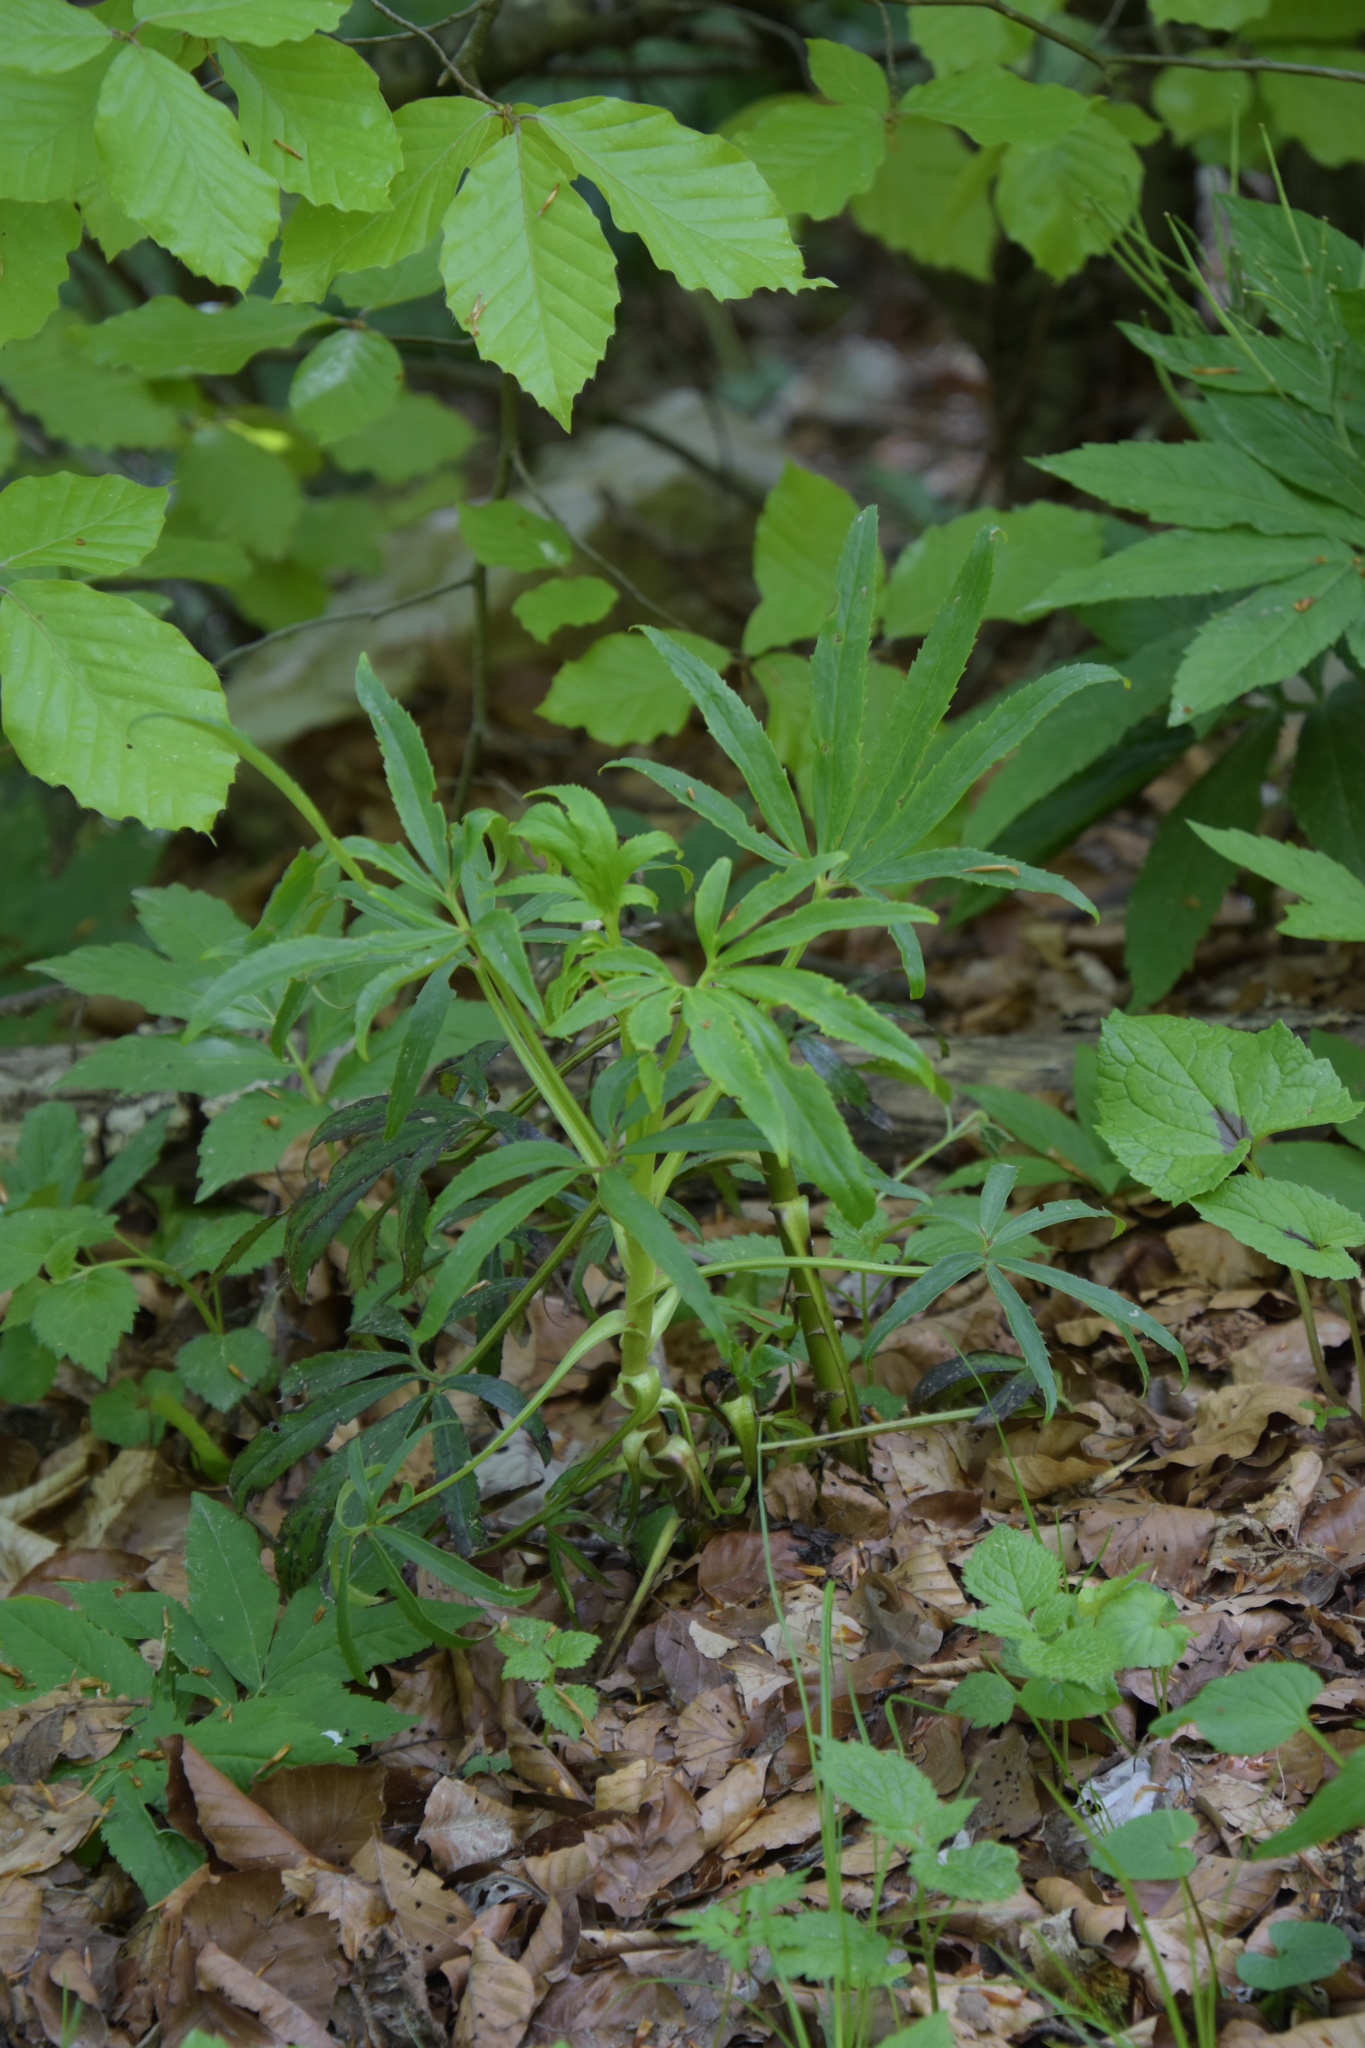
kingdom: Plantae
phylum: Tracheophyta
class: Magnoliopsida
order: Ranunculales
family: Ranunculaceae
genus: Helleborus
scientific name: Helleborus foetidus
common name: Stinking hellebore
